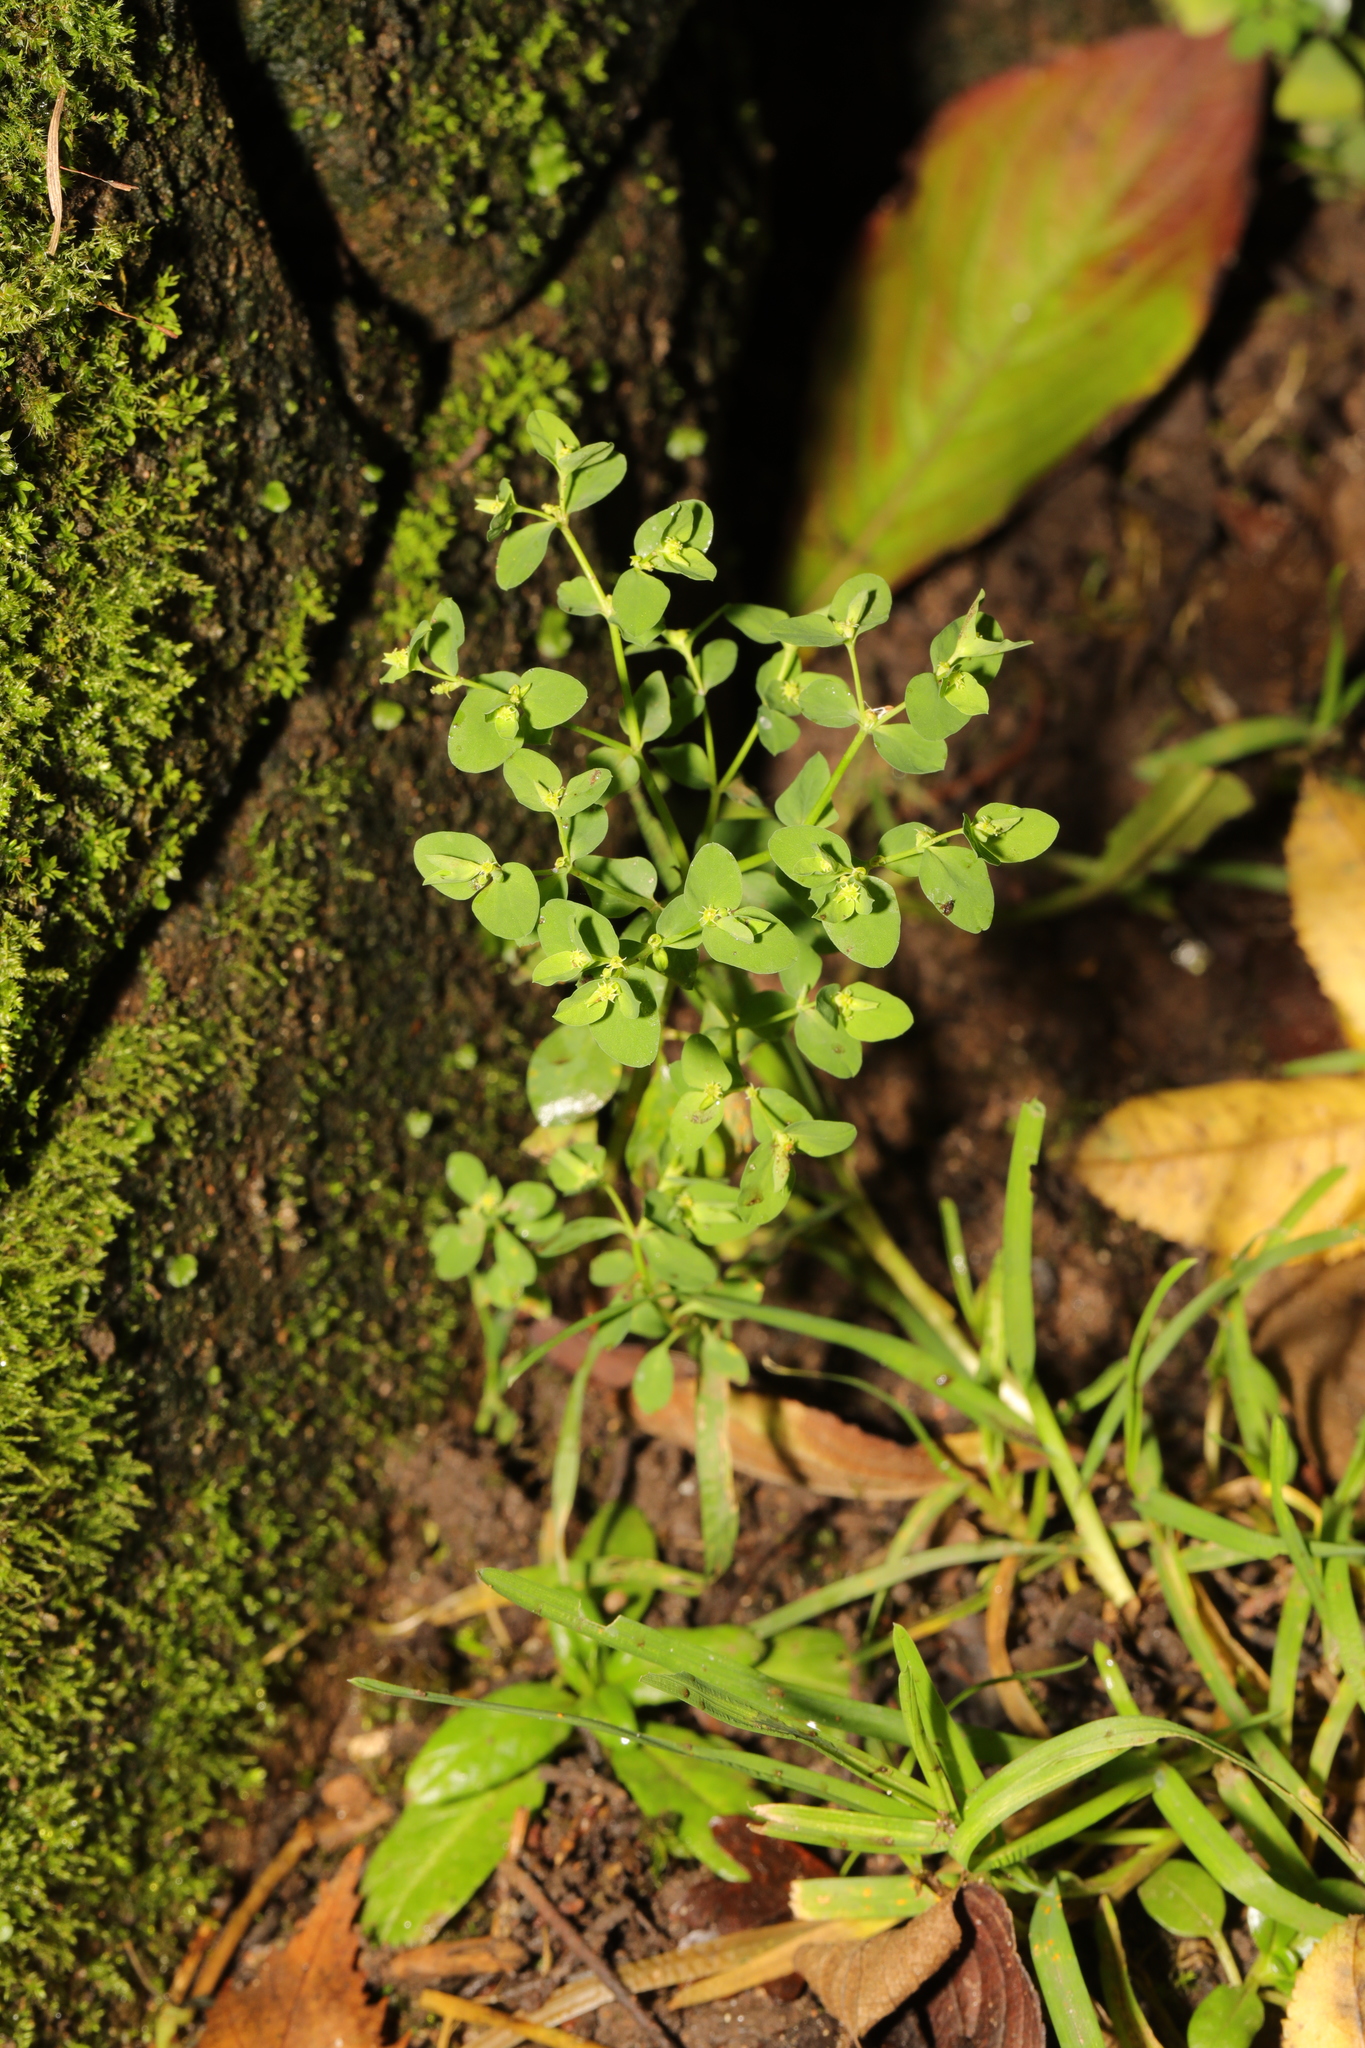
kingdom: Plantae
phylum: Tracheophyta
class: Magnoliopsida
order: Malpighiales
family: Euphorbiaceae
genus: Euphorbia
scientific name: Euphorbia peplus
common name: Petty spurge
